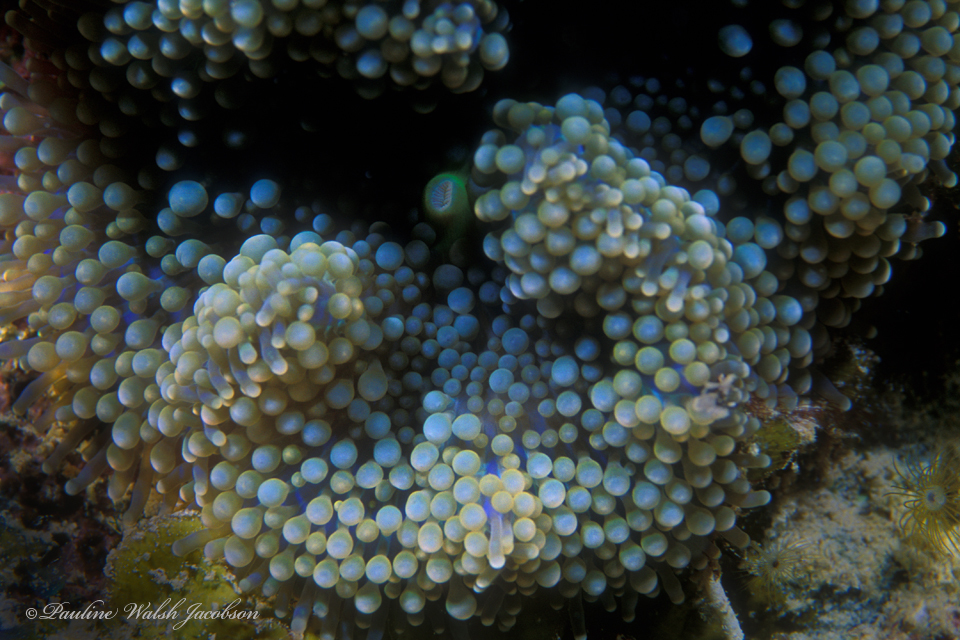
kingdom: Animalia
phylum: Cnidaria
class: Anthozoa
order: Corallimorpharia
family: Ricordeidae
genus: Ricordea
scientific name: Ricordea florida
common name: False coral
